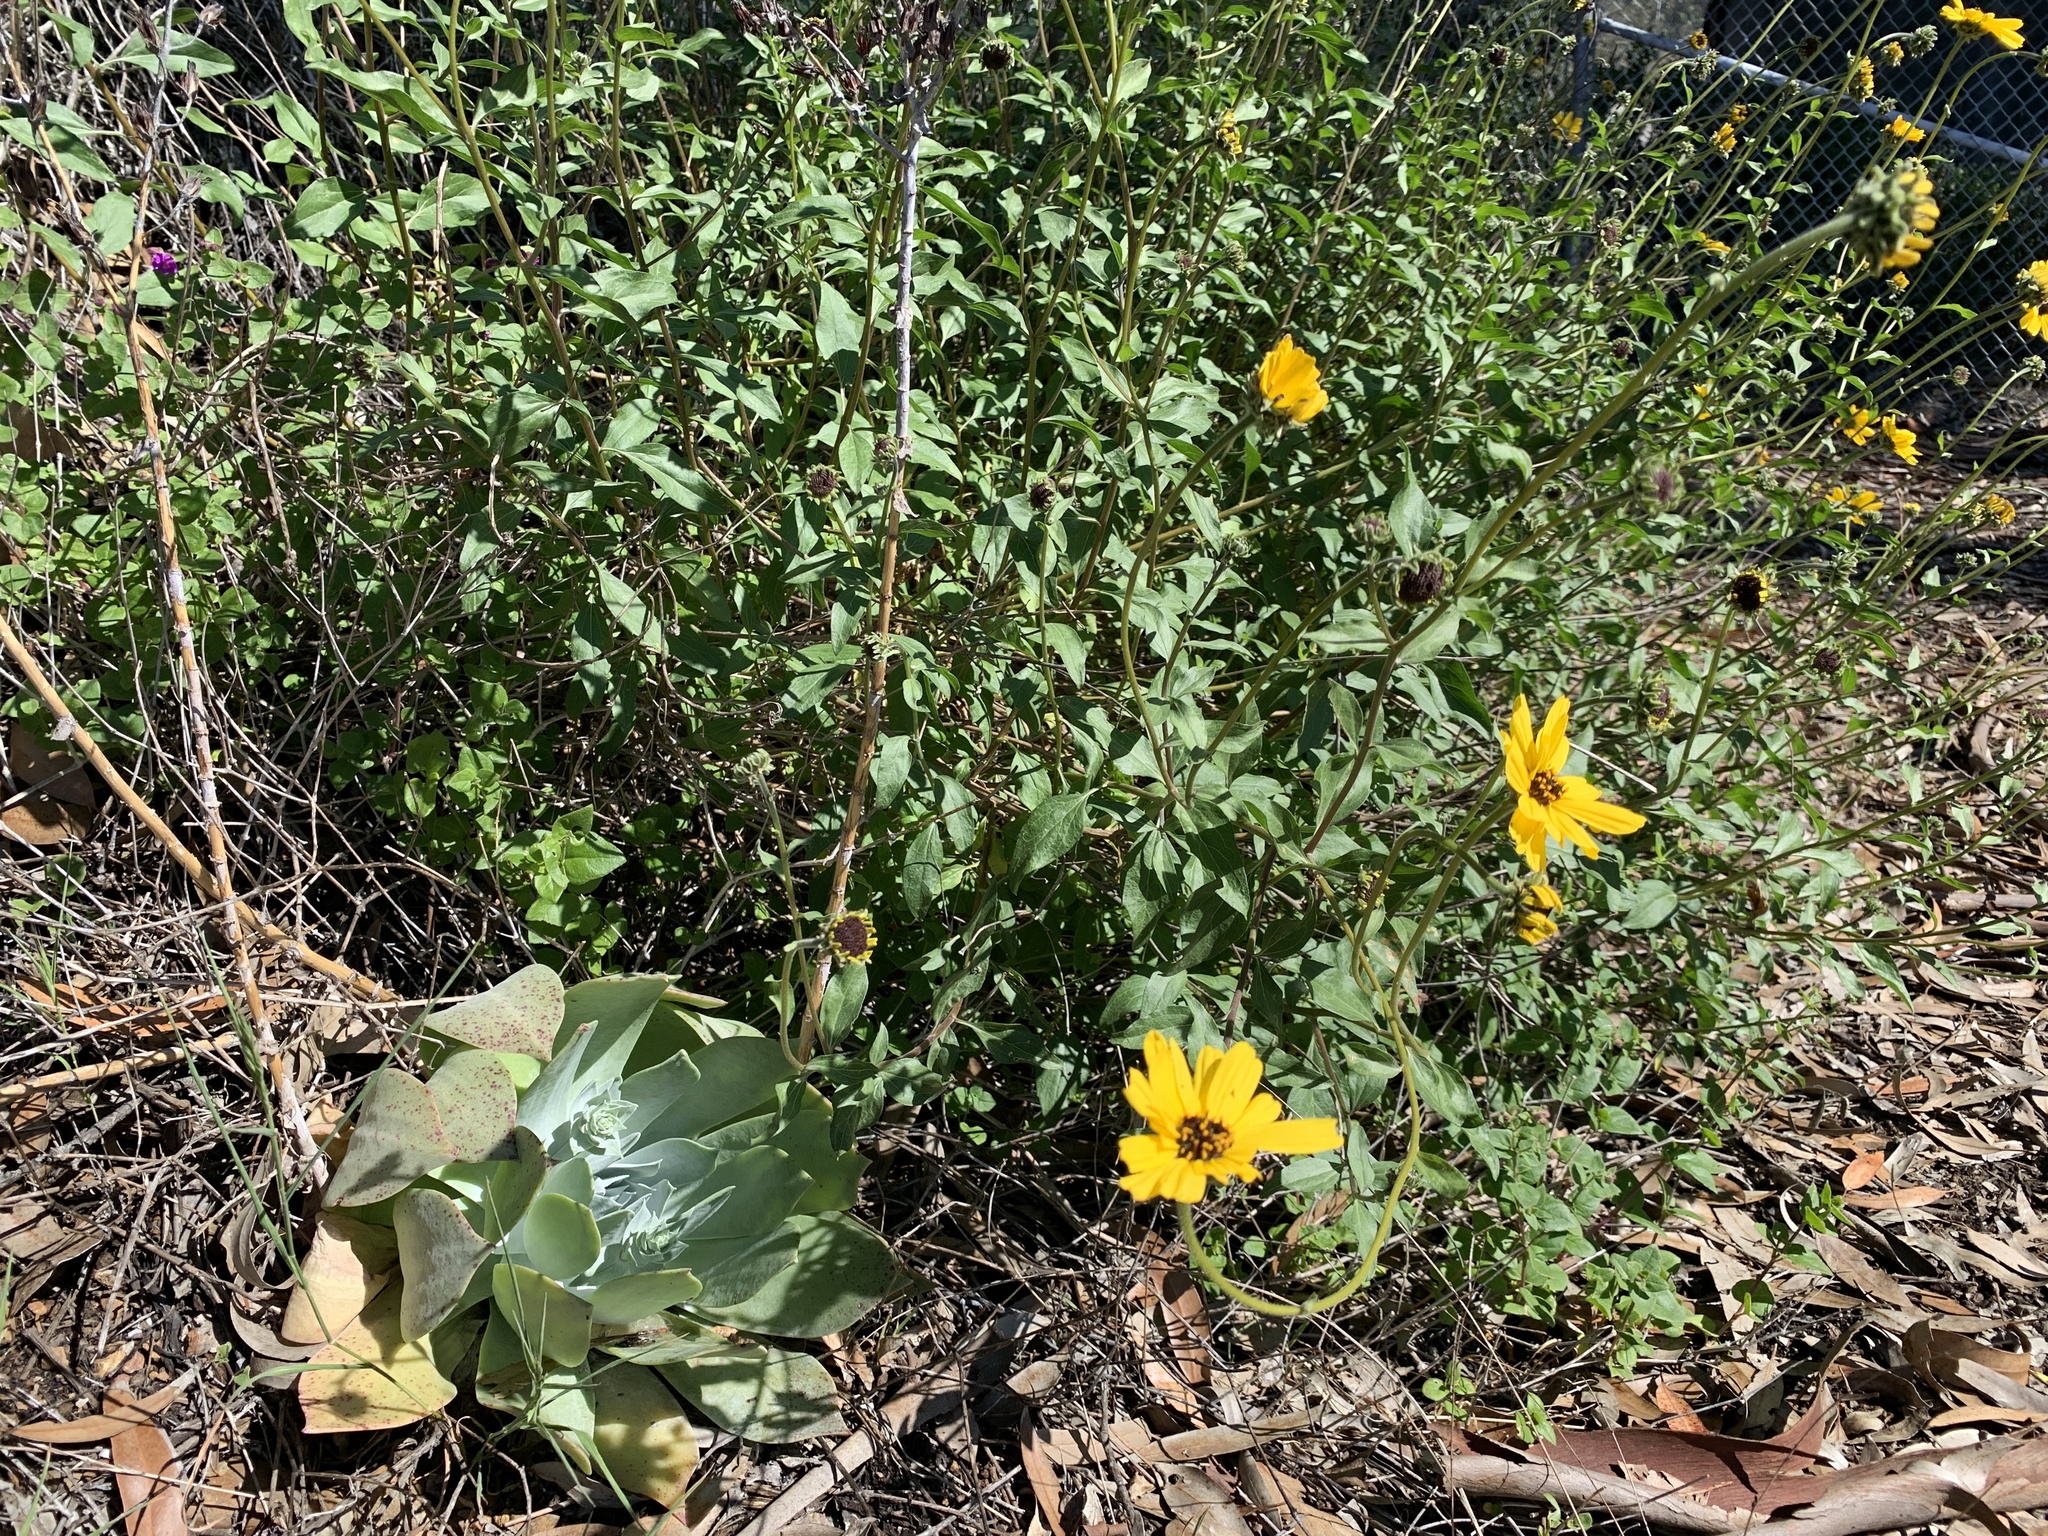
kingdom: Plantae
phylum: Tracheophyta
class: Magnoliopsida
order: Saxifragales
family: Crassulaceae
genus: Dudleya
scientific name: Dudleya pulverulenta
